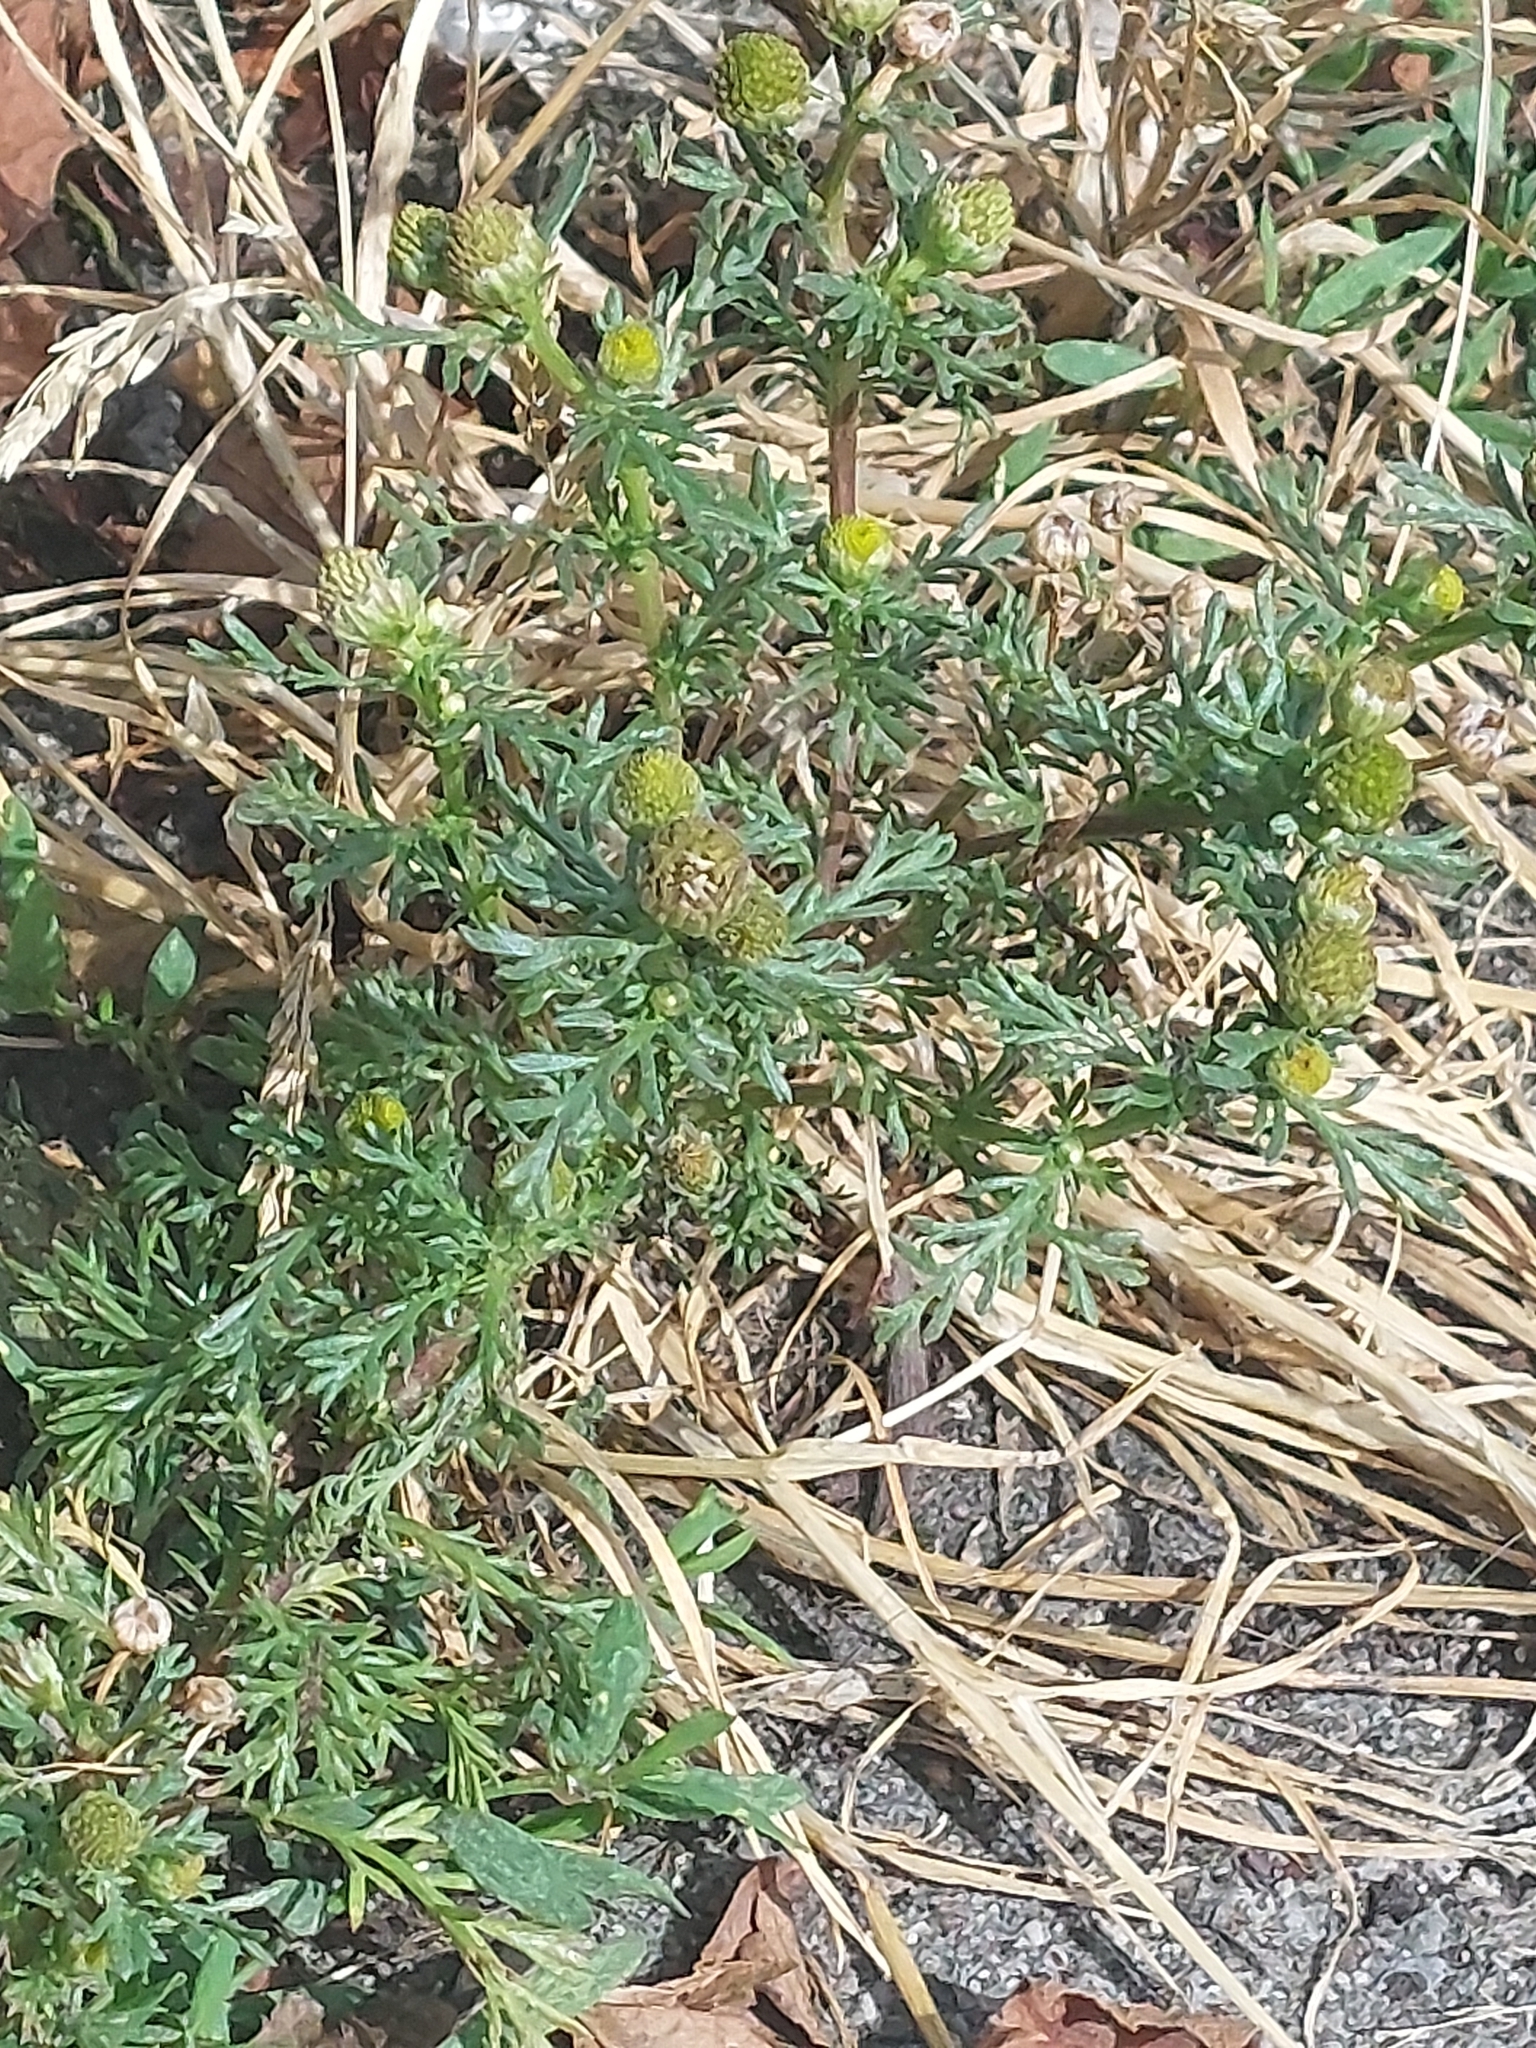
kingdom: Plantae
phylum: Tracheophyta
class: Magnoliopsida
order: Asterales
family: Asteraceae
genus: Matricaria
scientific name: Matricaria discoidea
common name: Disc mayweed
